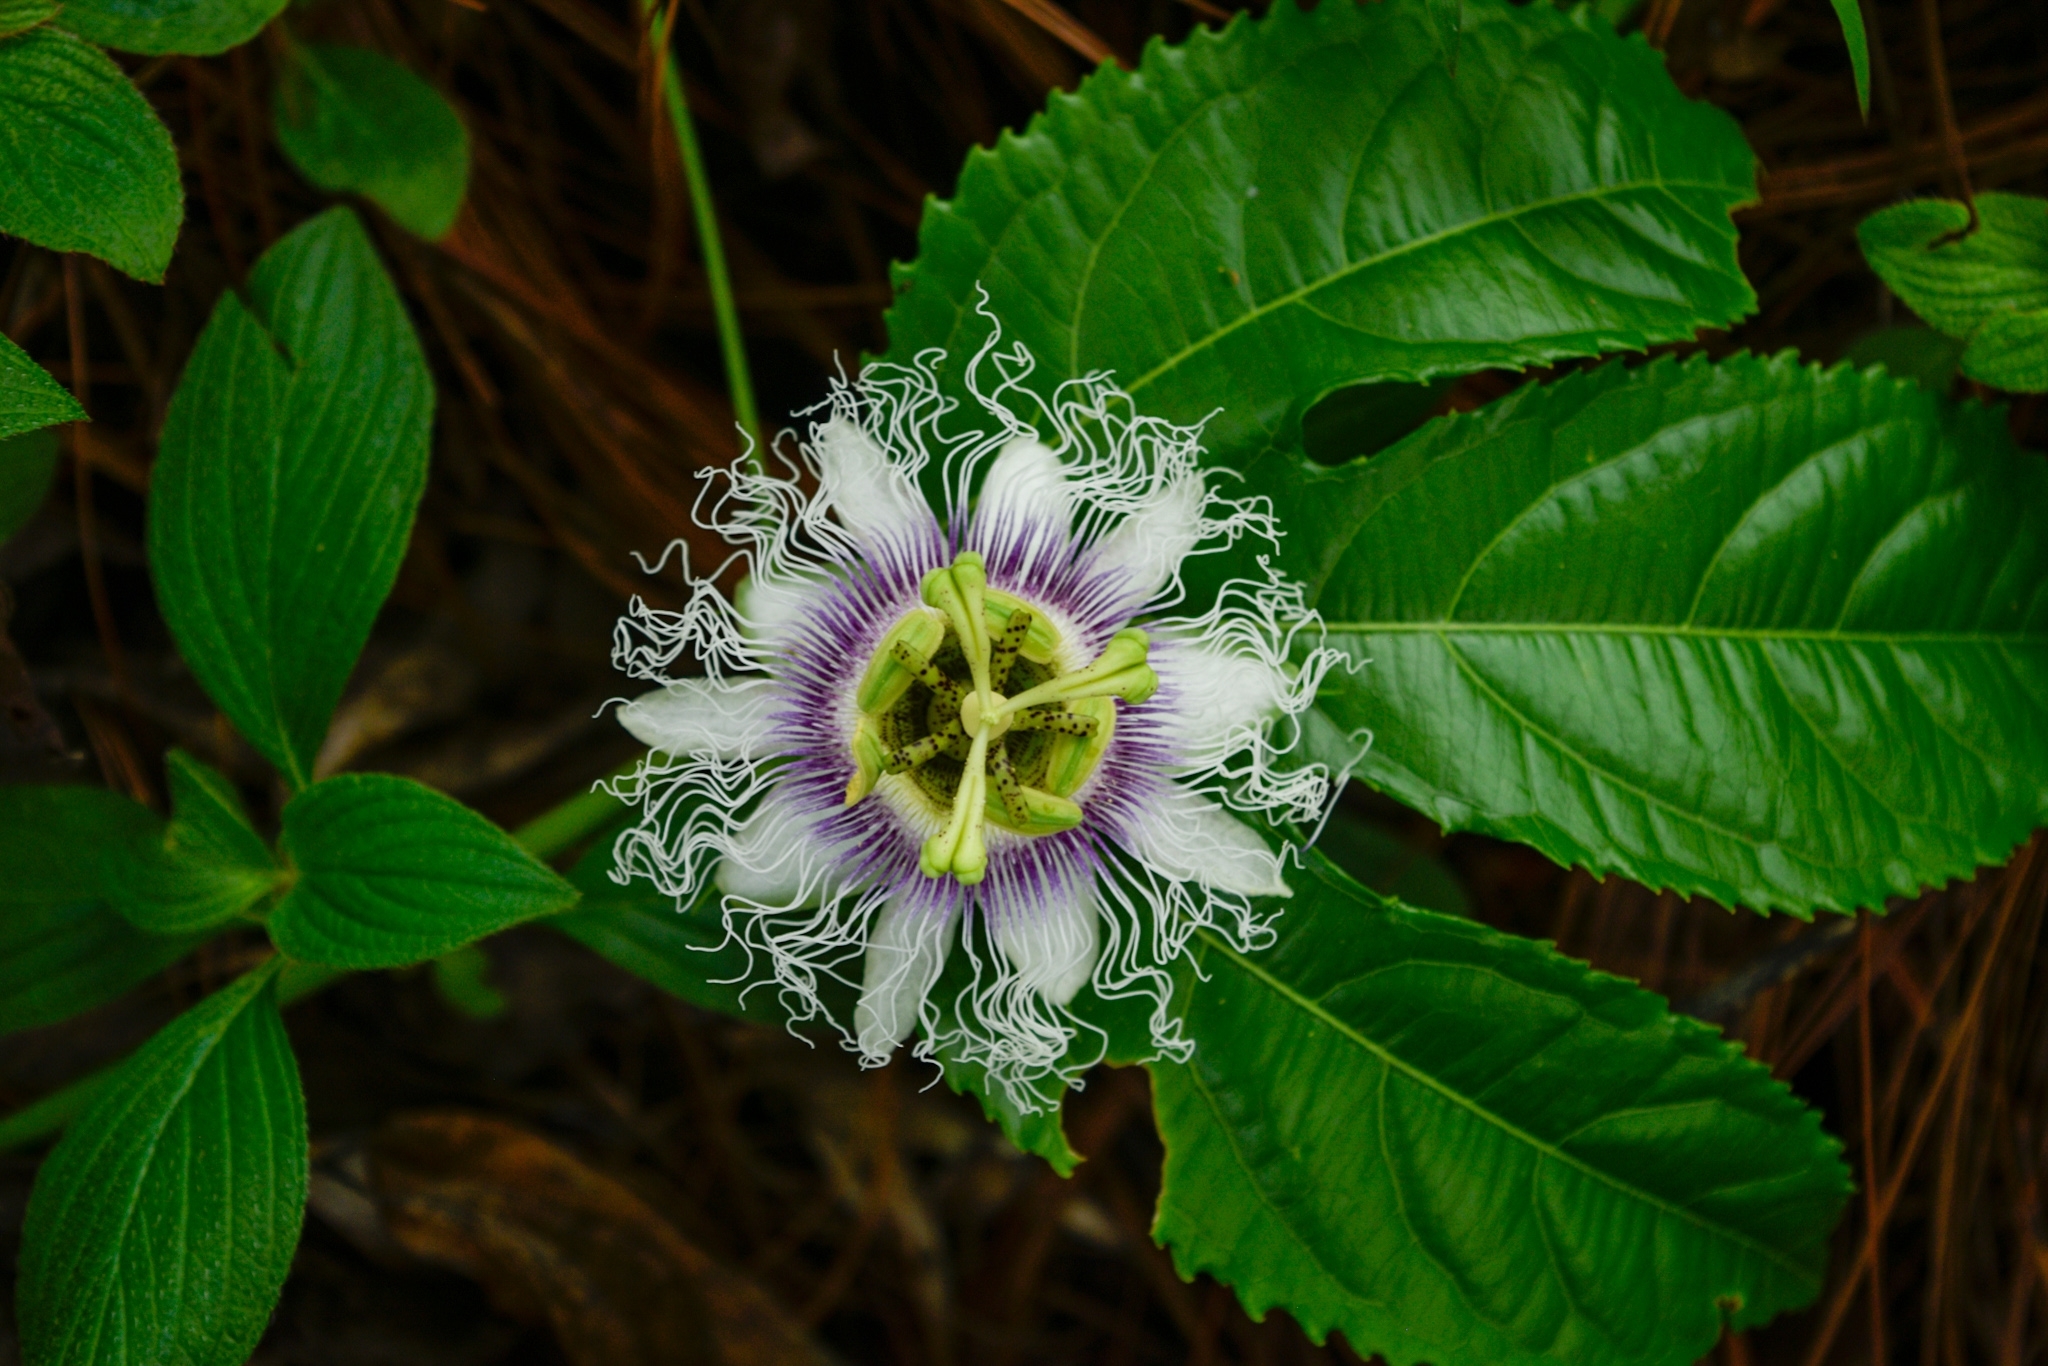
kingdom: Plantae
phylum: Tracheophyta
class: Magnoliopsida
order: Malpighiales
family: Passifloraceae
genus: Passiflora
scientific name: Passiflora edulis
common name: Purple granadilla
